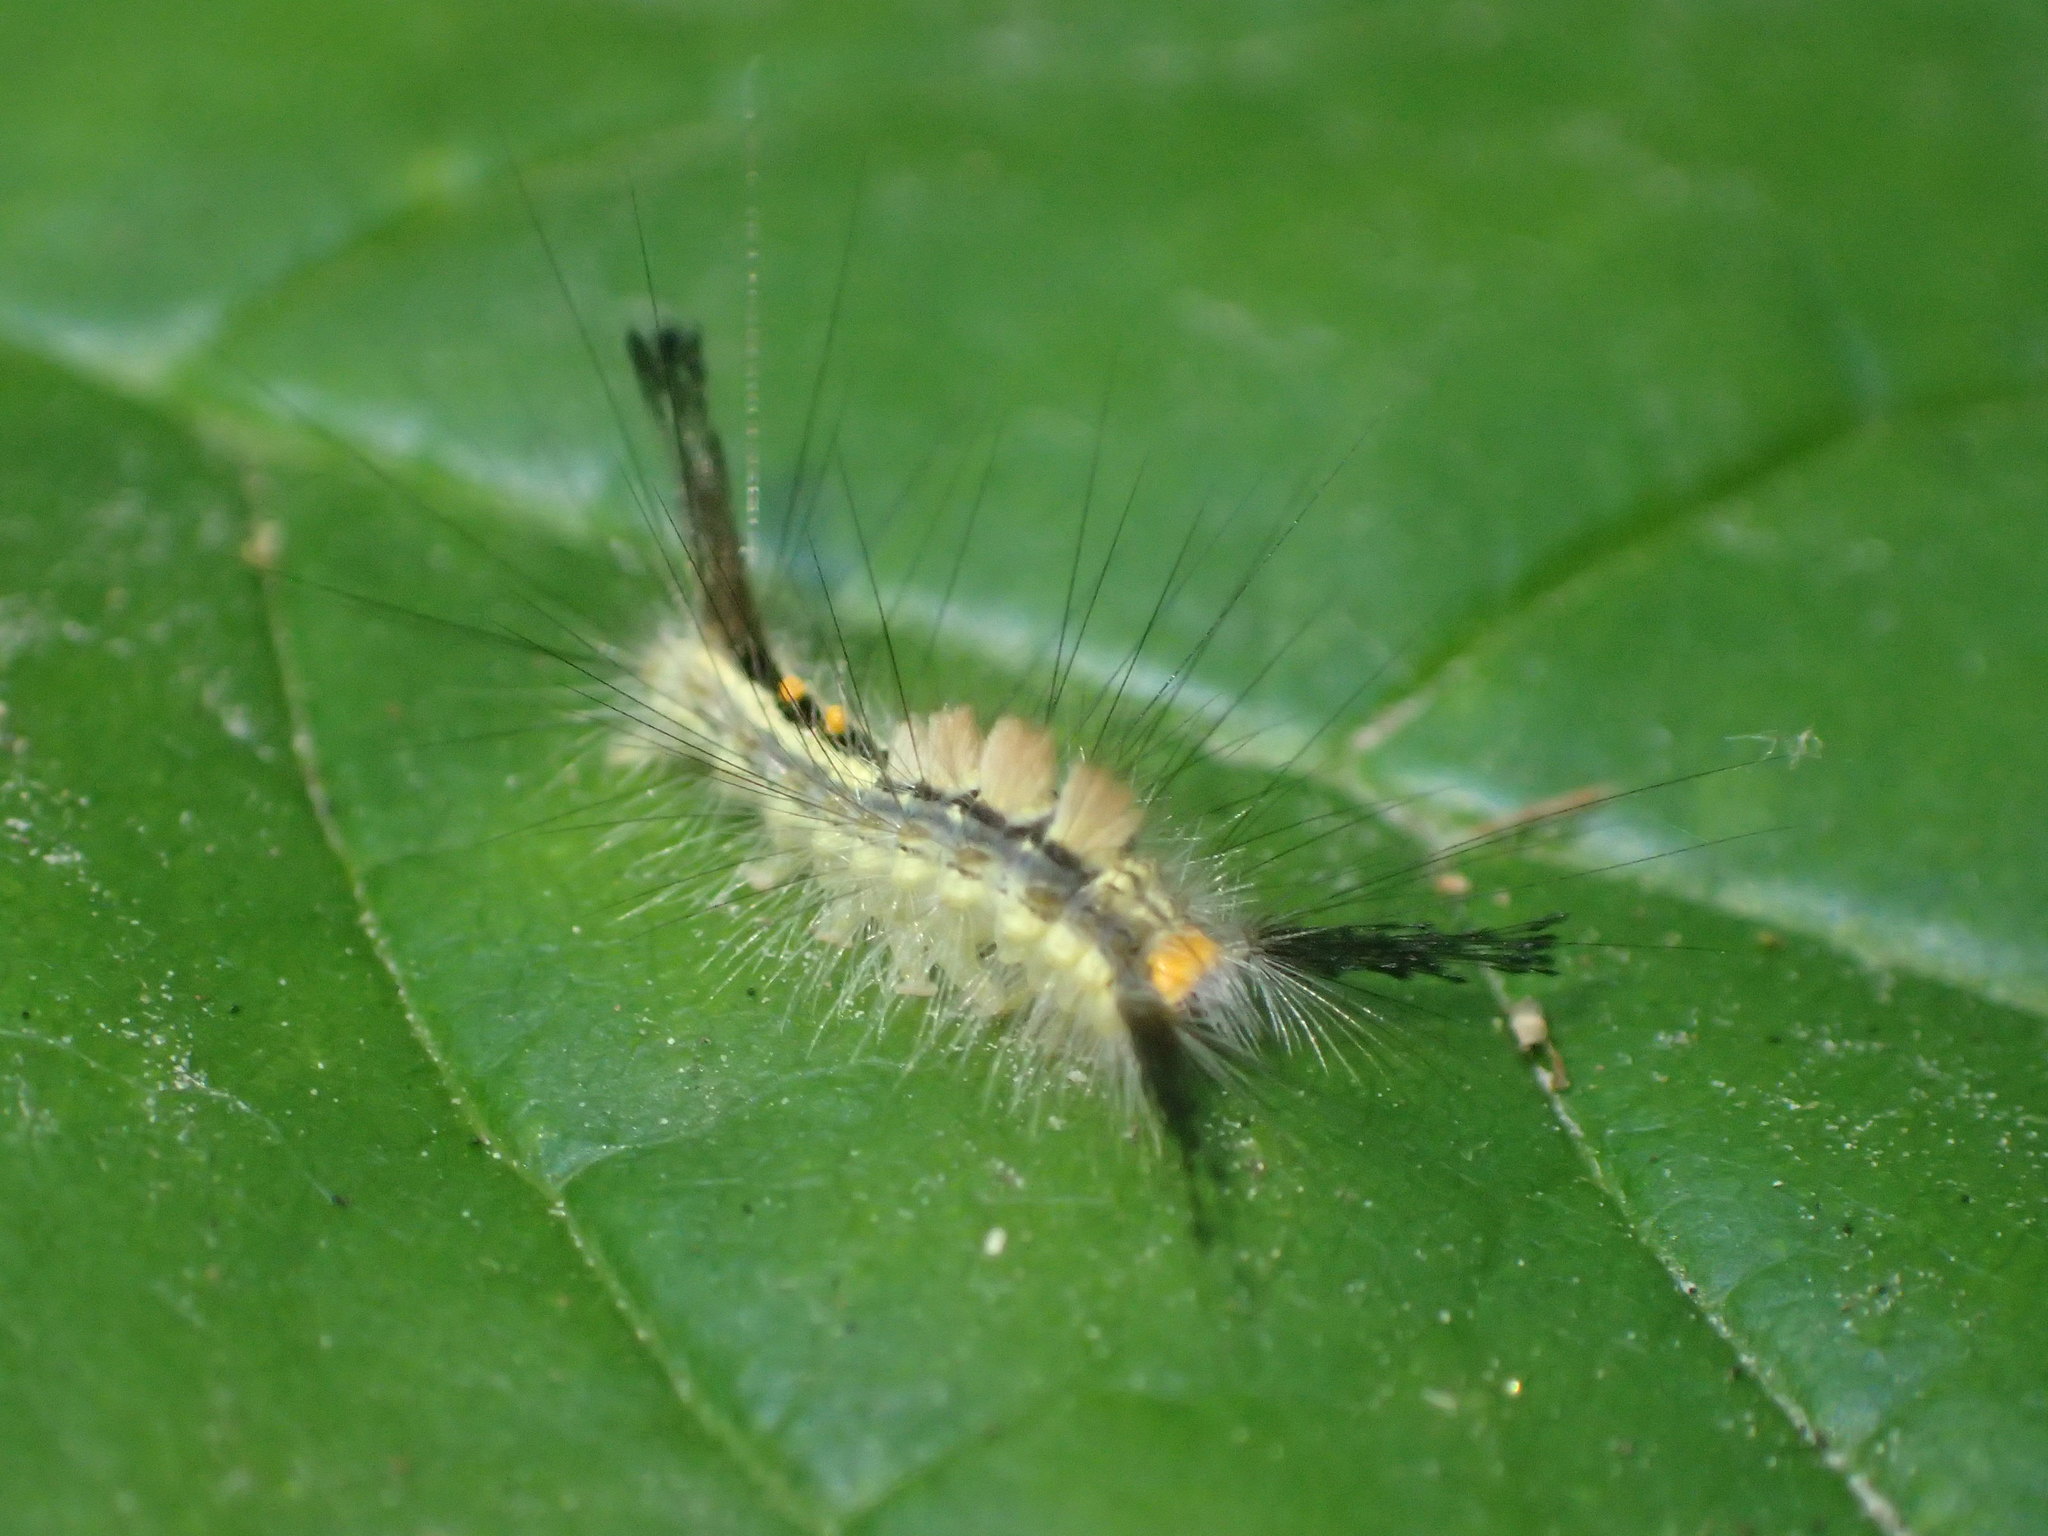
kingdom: Animalia
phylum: Arthropoda
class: Insecta
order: Lepidoptera
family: Erebidae
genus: Orgyia
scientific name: Orgyia leucostigma
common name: White-marked tussock moth
